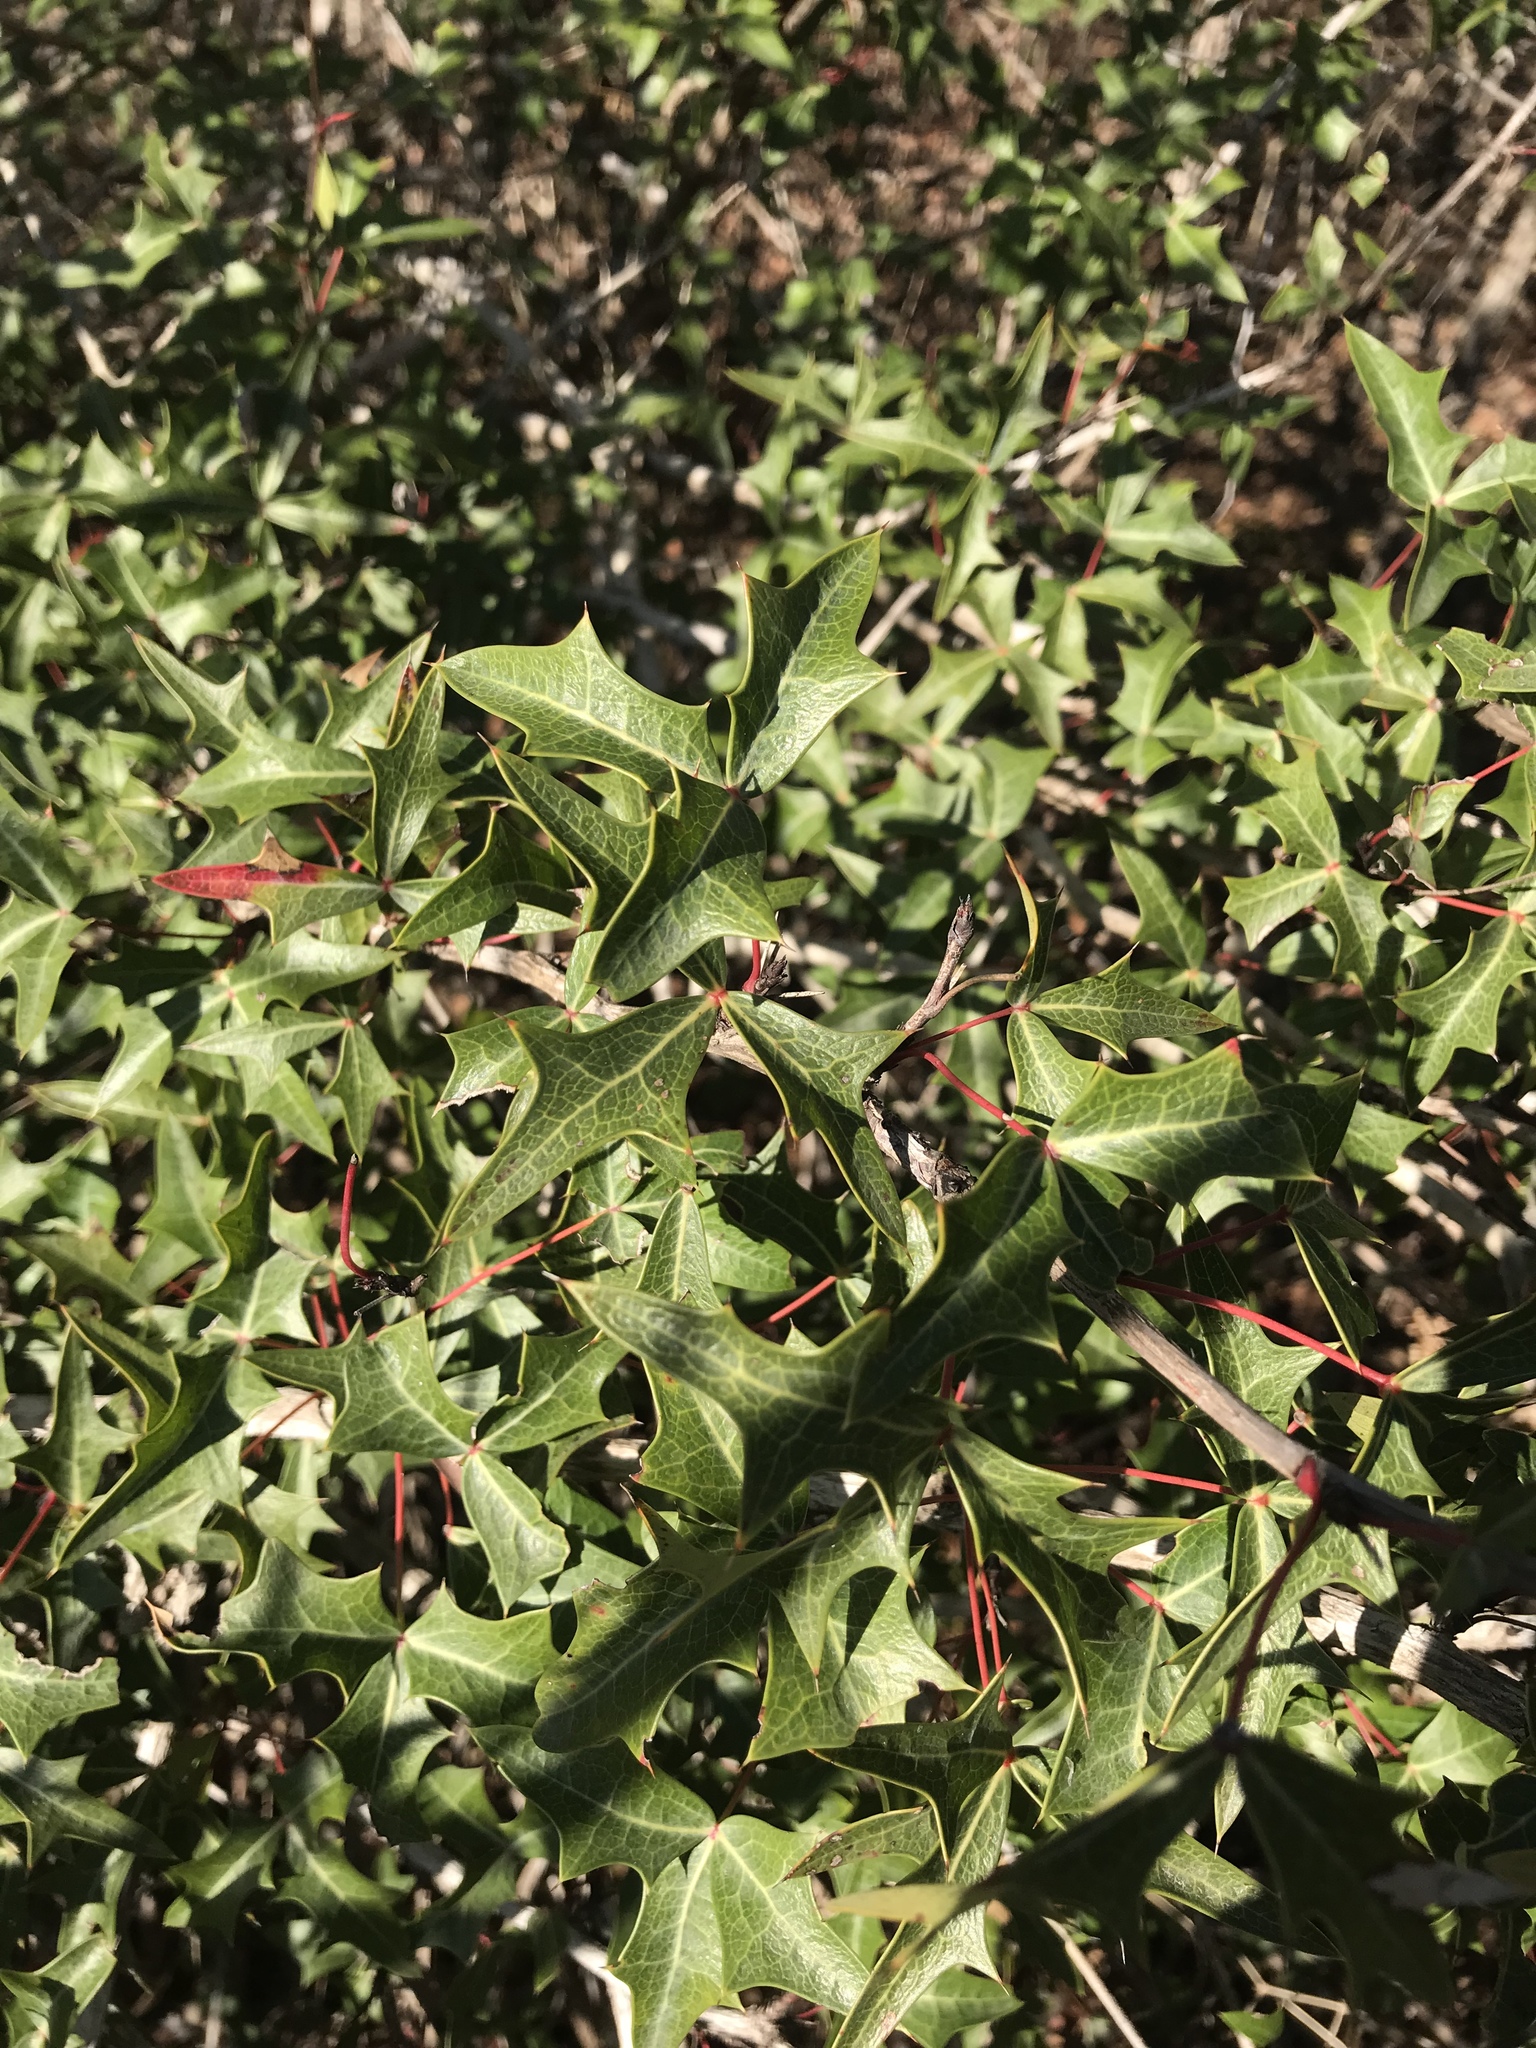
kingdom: Plantae
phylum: Tracheophyta
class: Magnoliopsida
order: Ranunculales
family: Berberidaceae
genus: Alloberberis
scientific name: Alloberberis trifoliolata
